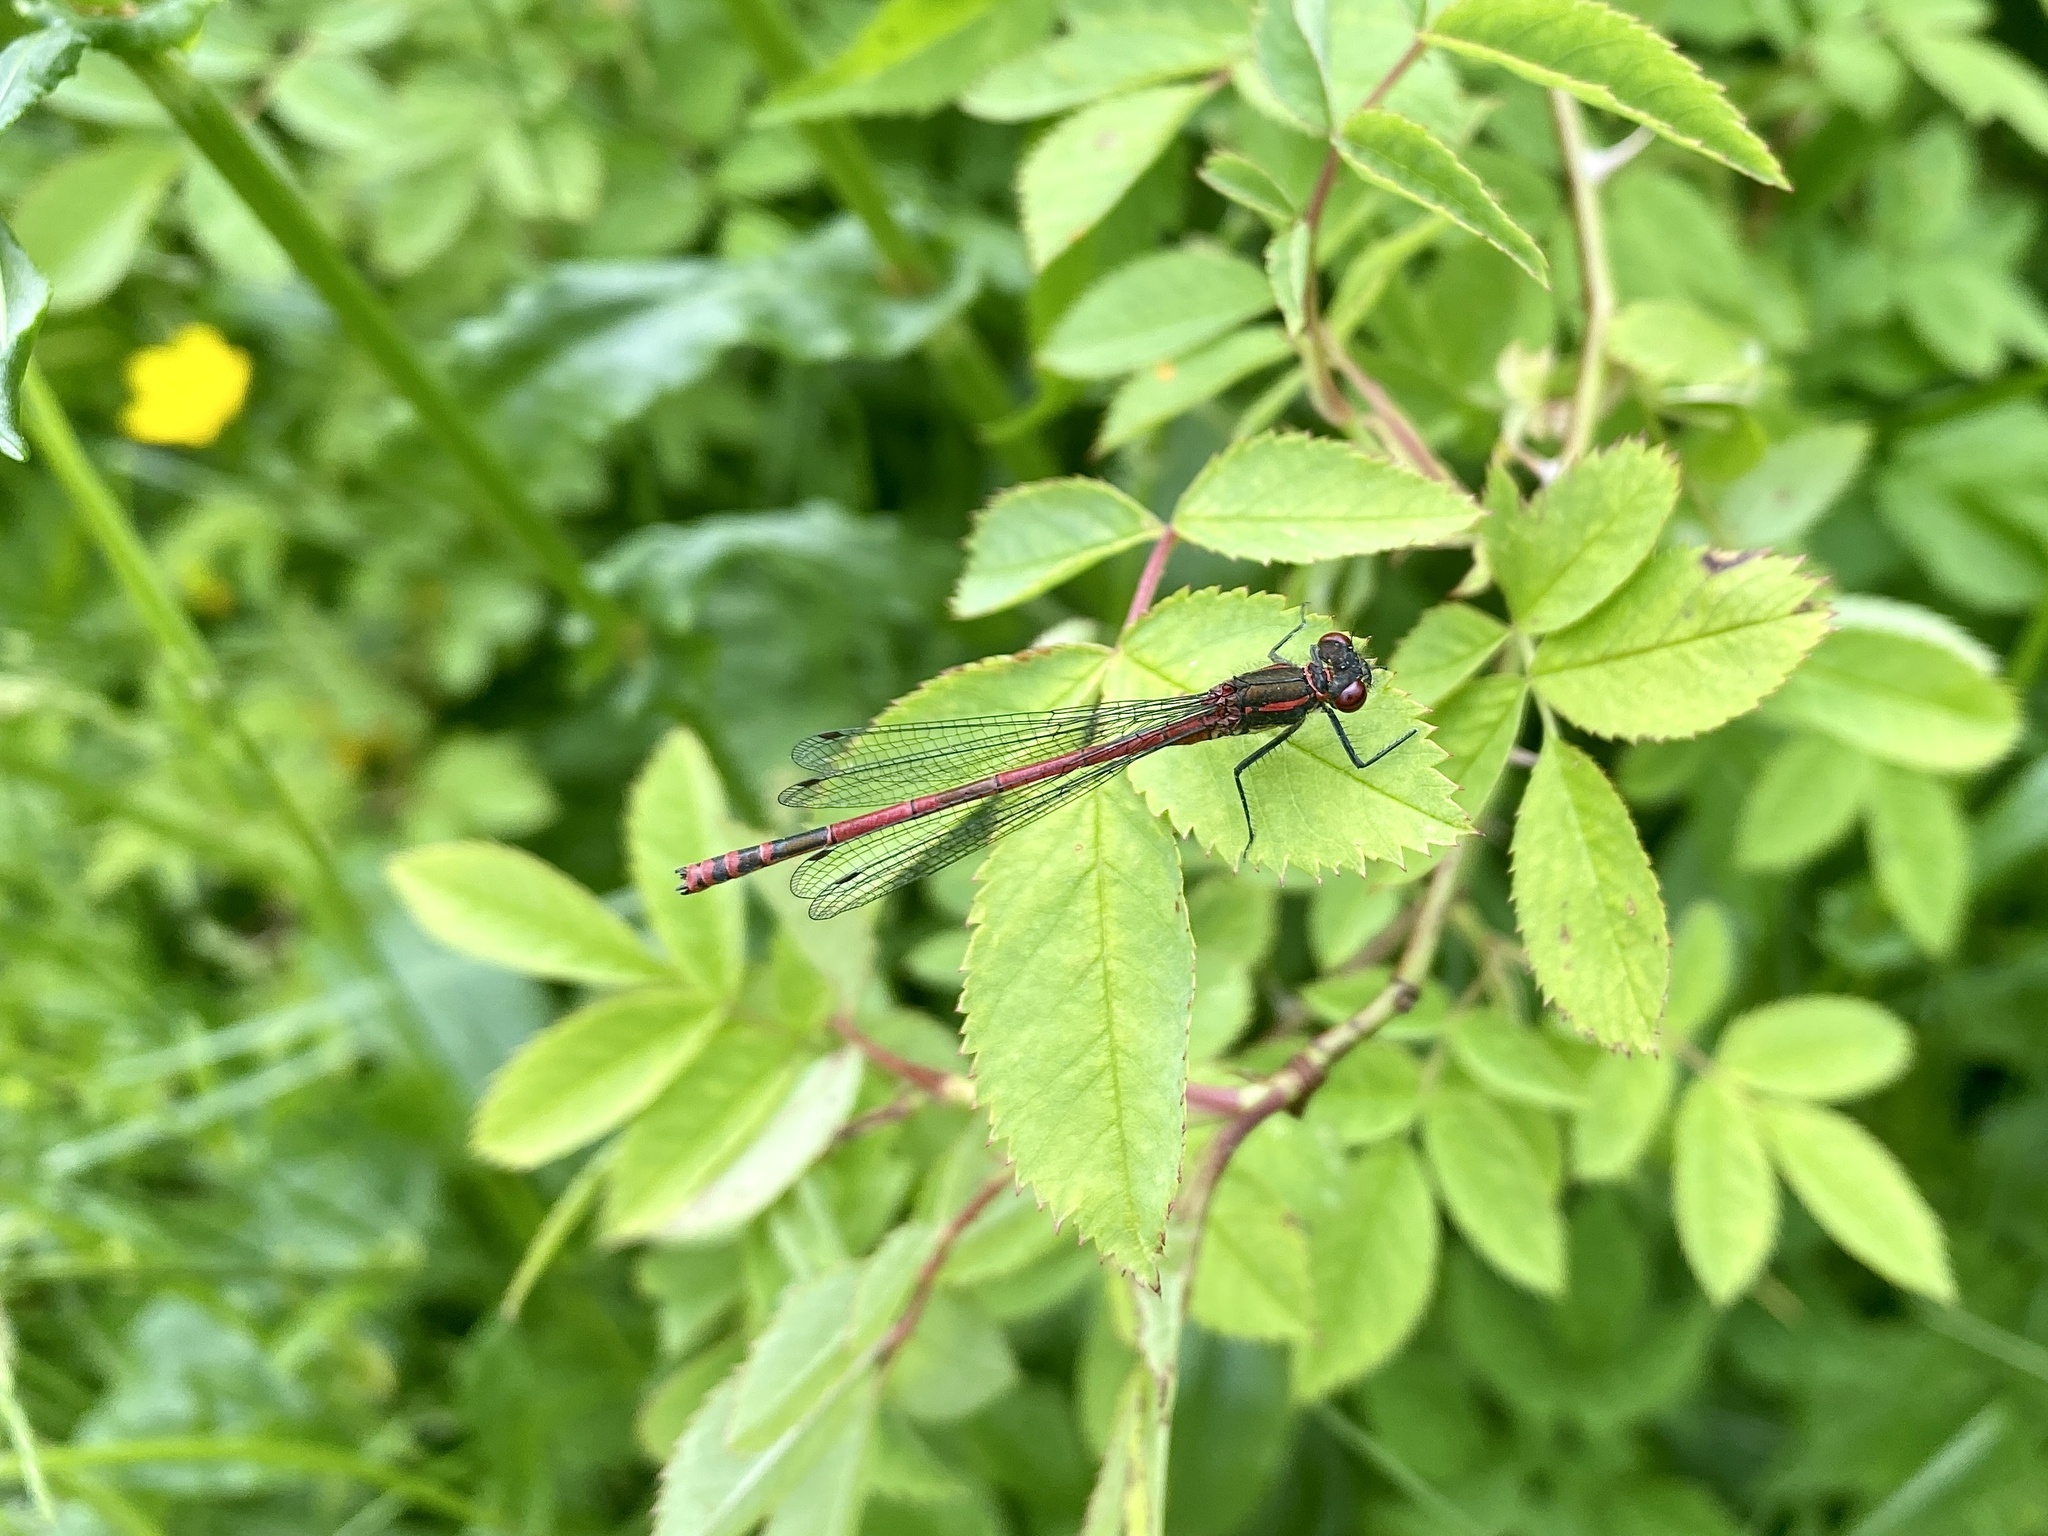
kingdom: Animalia
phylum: Arthropoda
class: Insecta
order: Odonata
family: Coenagrionidae
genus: Pyrrhosoma
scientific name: Pyrrhosoma nymphula
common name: Large red damsel
